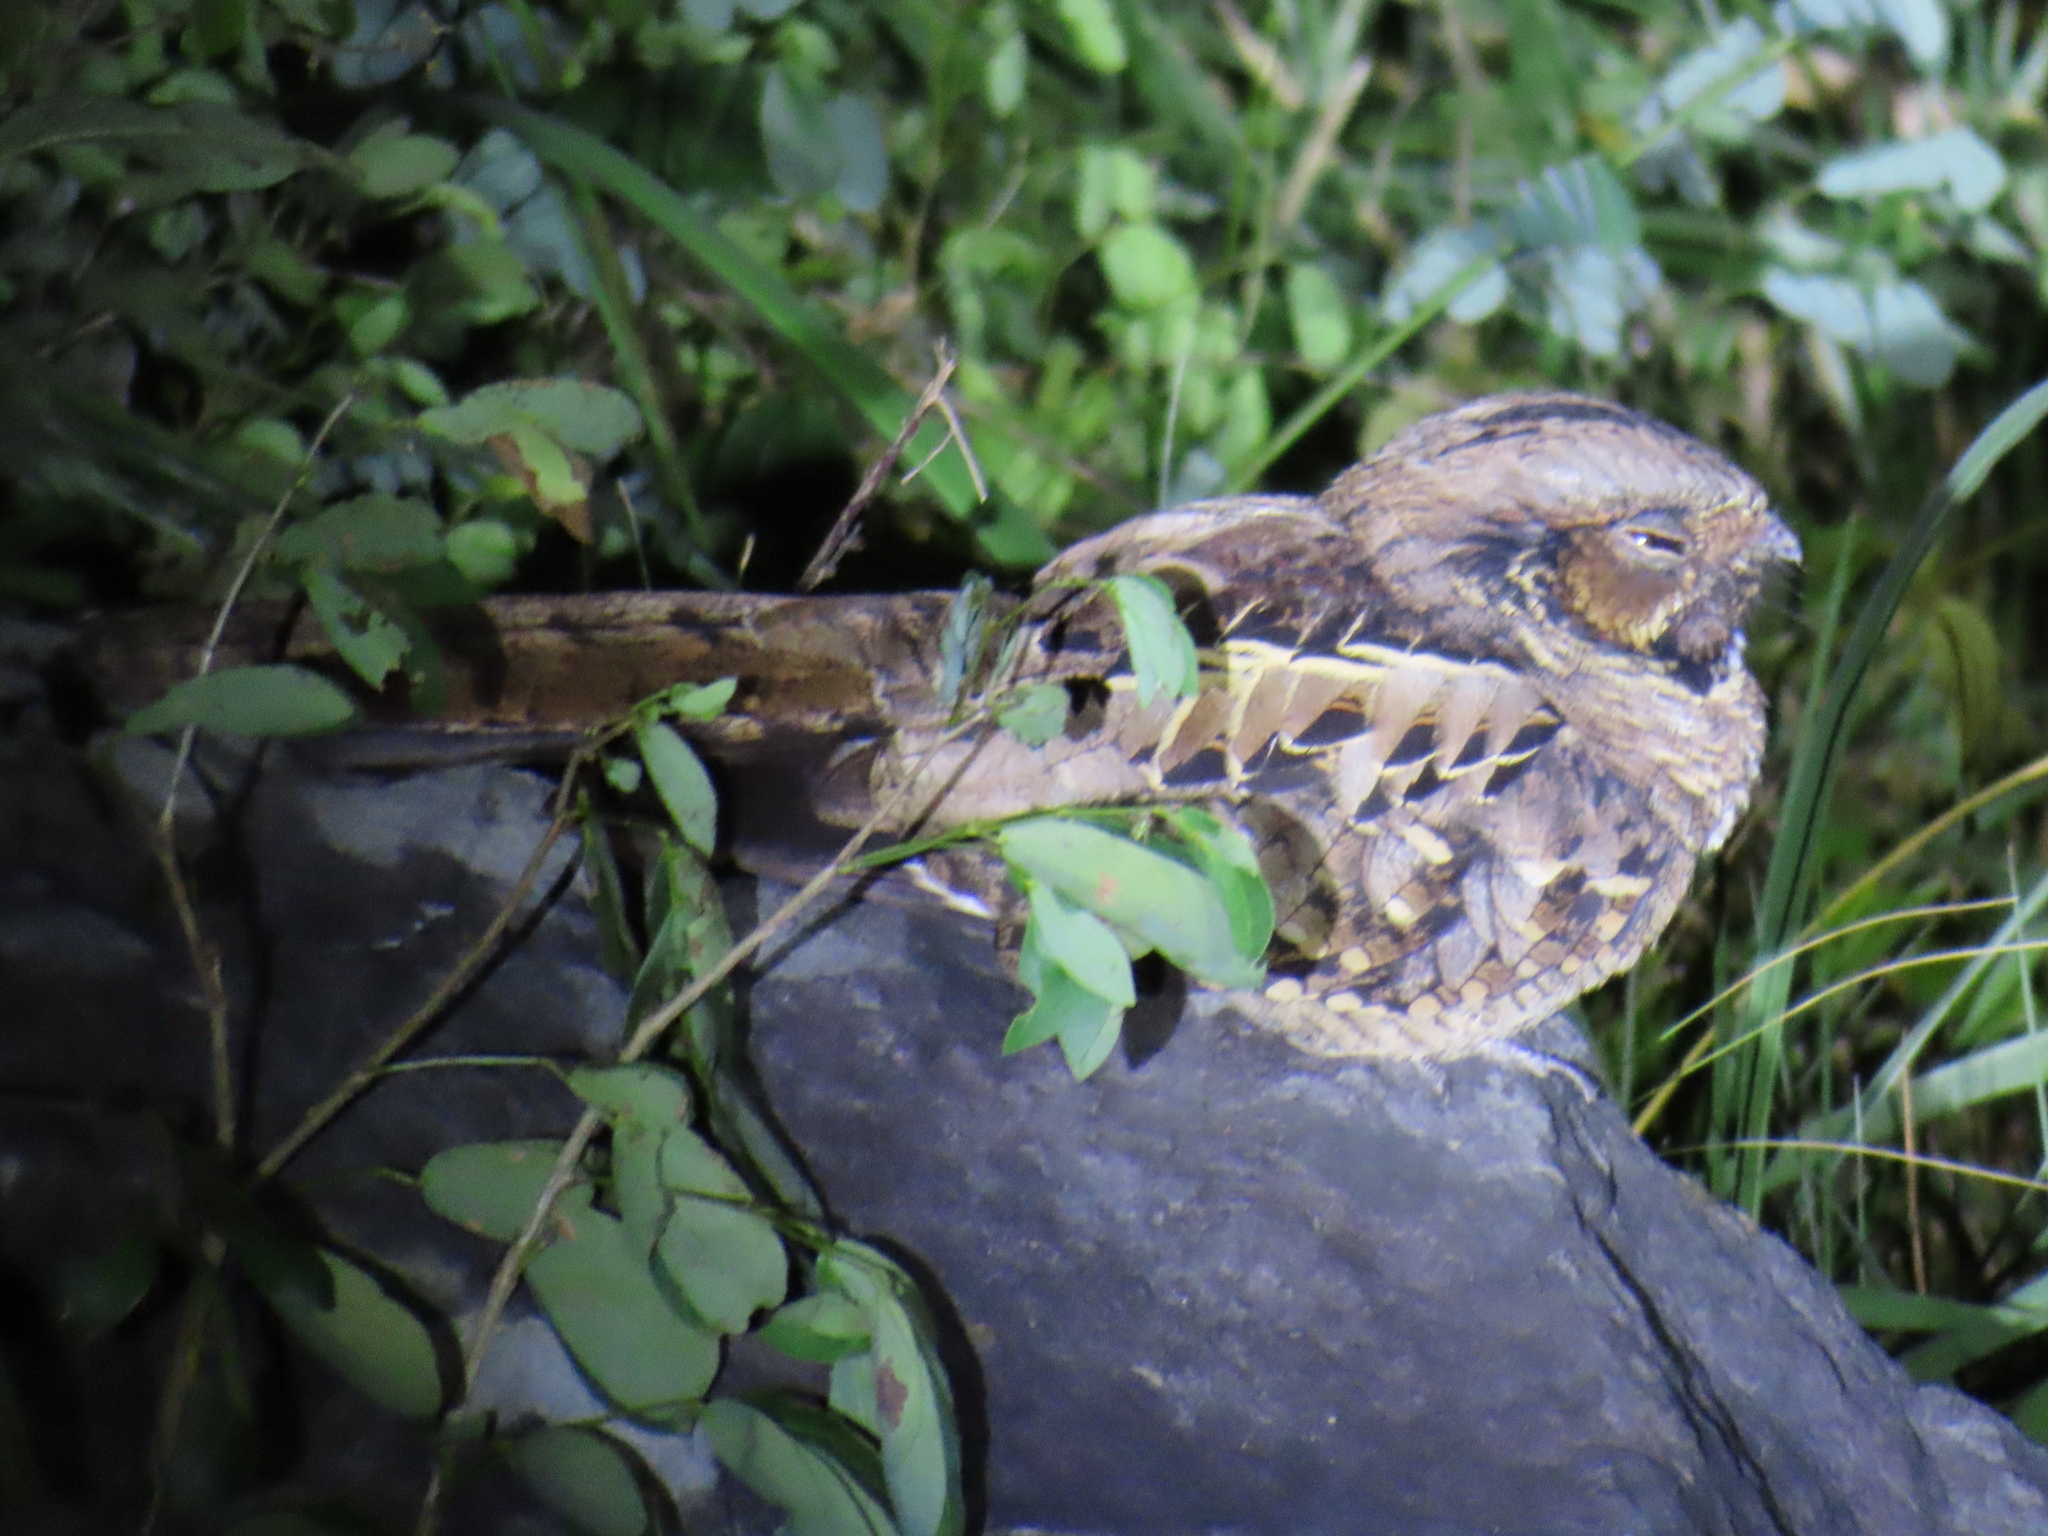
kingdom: Animalia
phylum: Chordata
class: Aves
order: Caprimulgiformes
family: Caprimulgidae
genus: Nyctidromus
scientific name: Nyctidromus albicollis
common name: Pauraque
